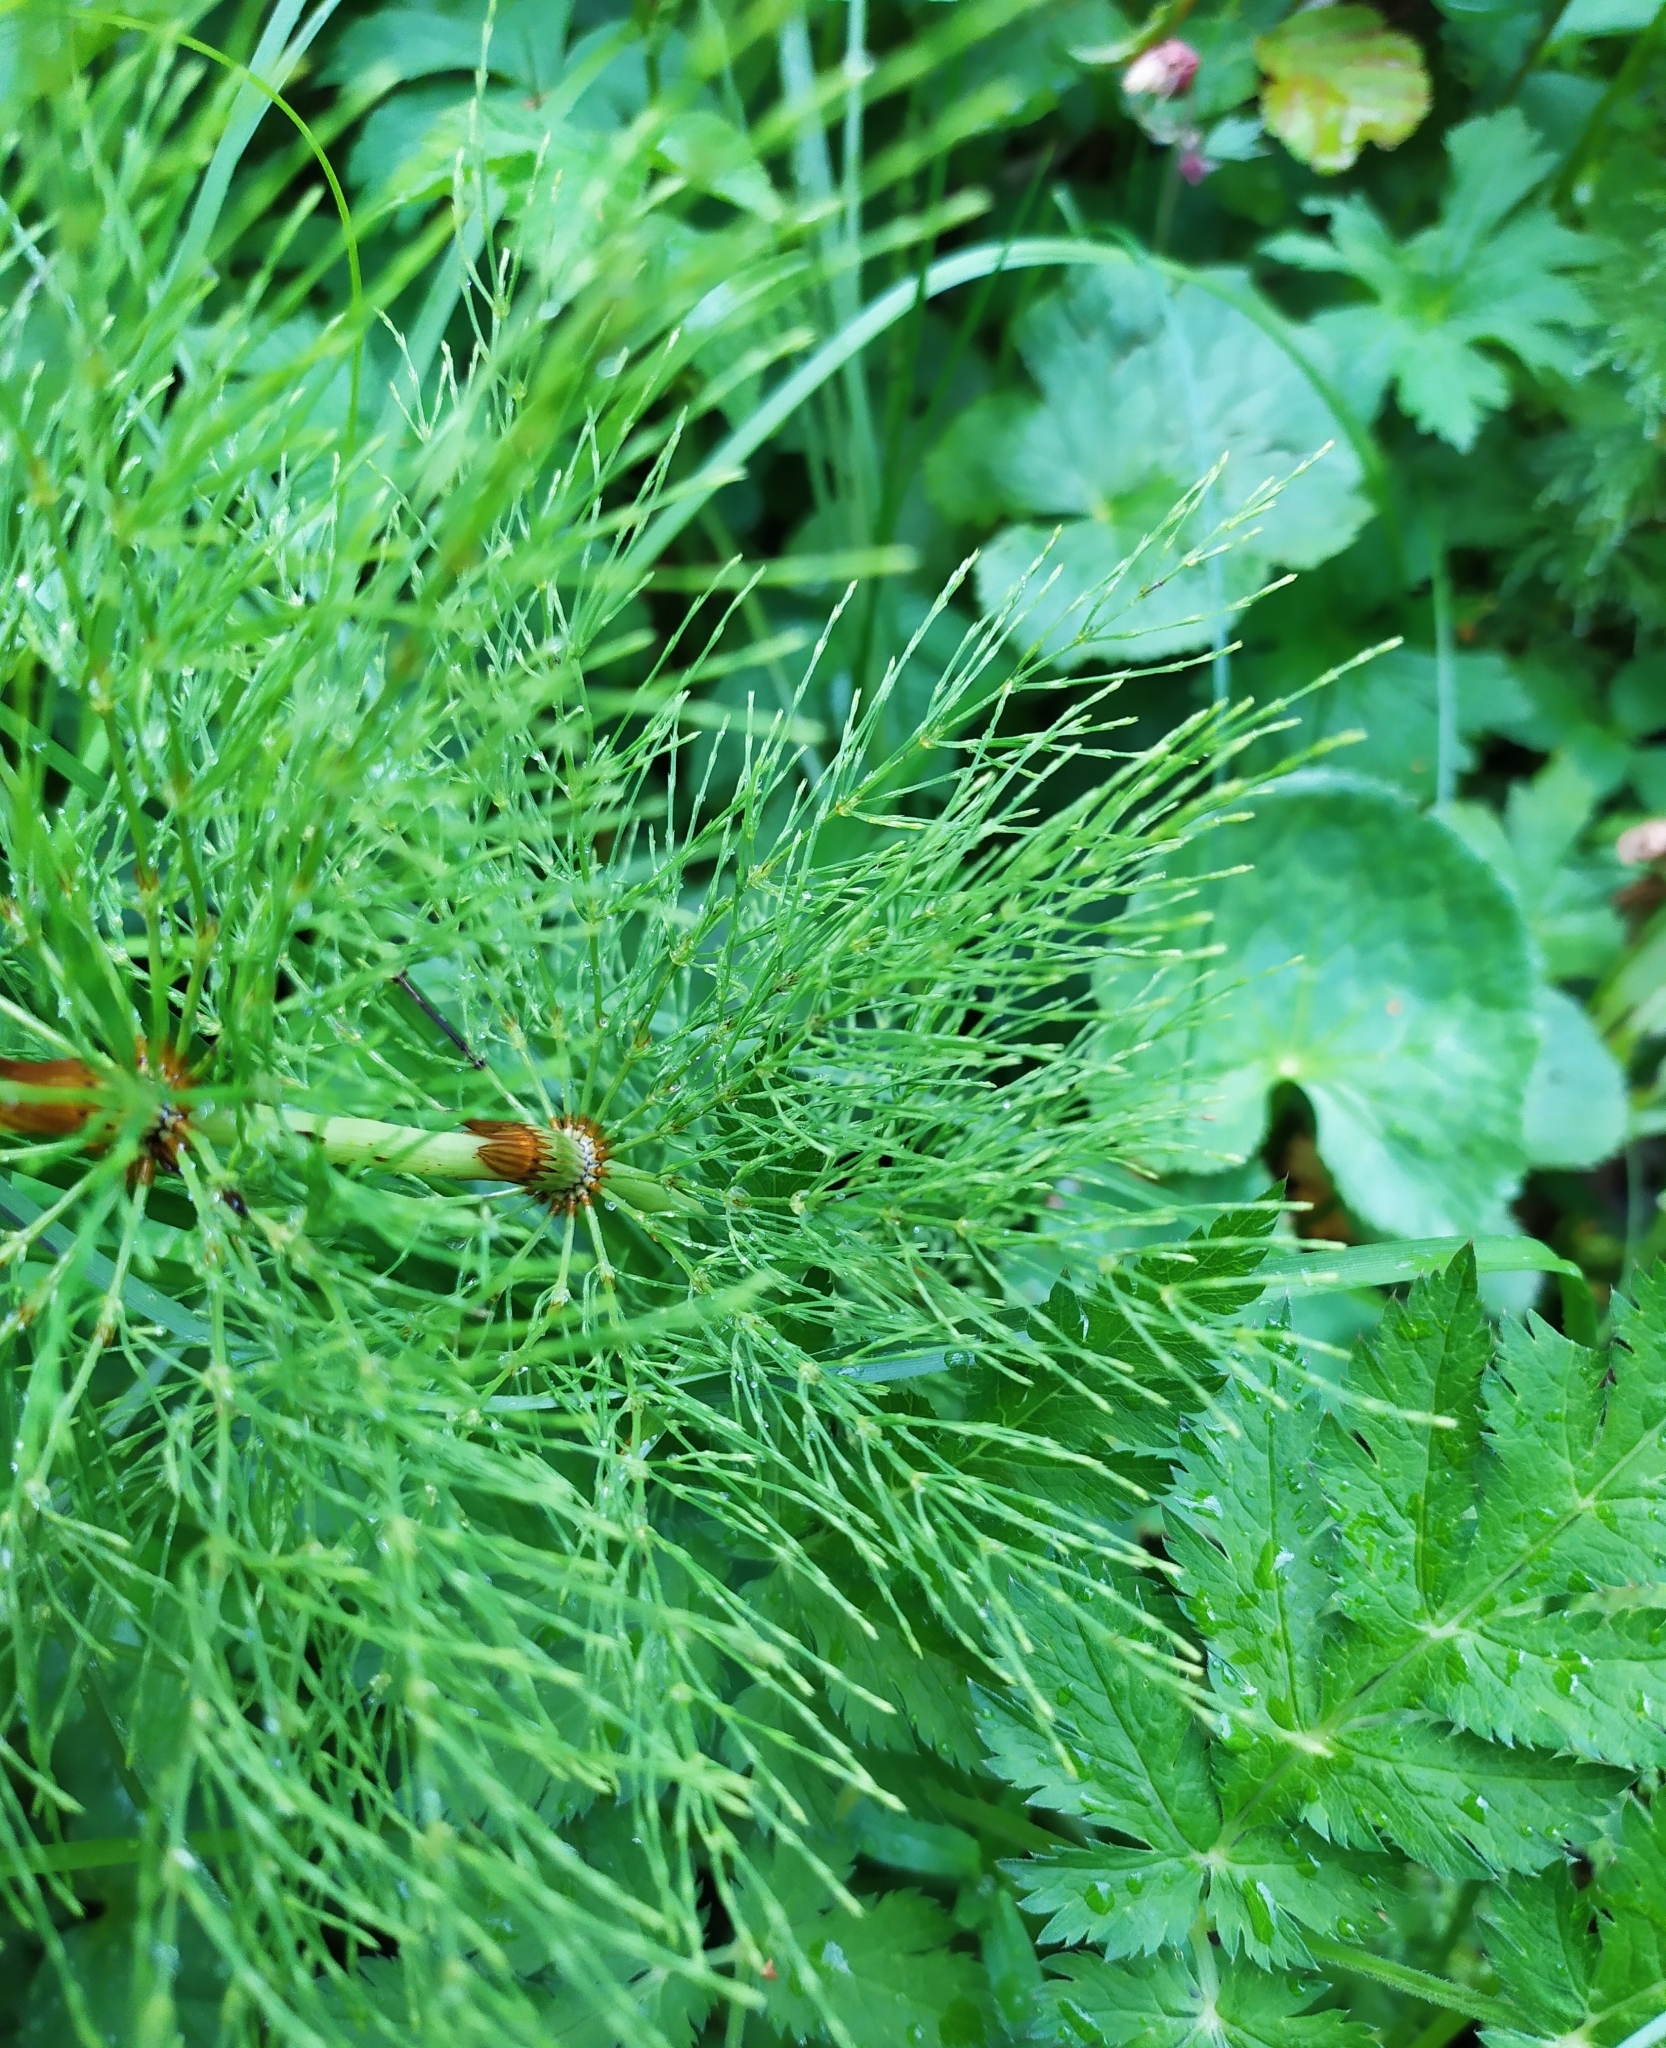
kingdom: Plantae
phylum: Tracheophyta
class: Polypodiopsida
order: Equisetales
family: Equisetaceae
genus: Equisetum
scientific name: Equisetum sylvaticum
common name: Wood horsetail
